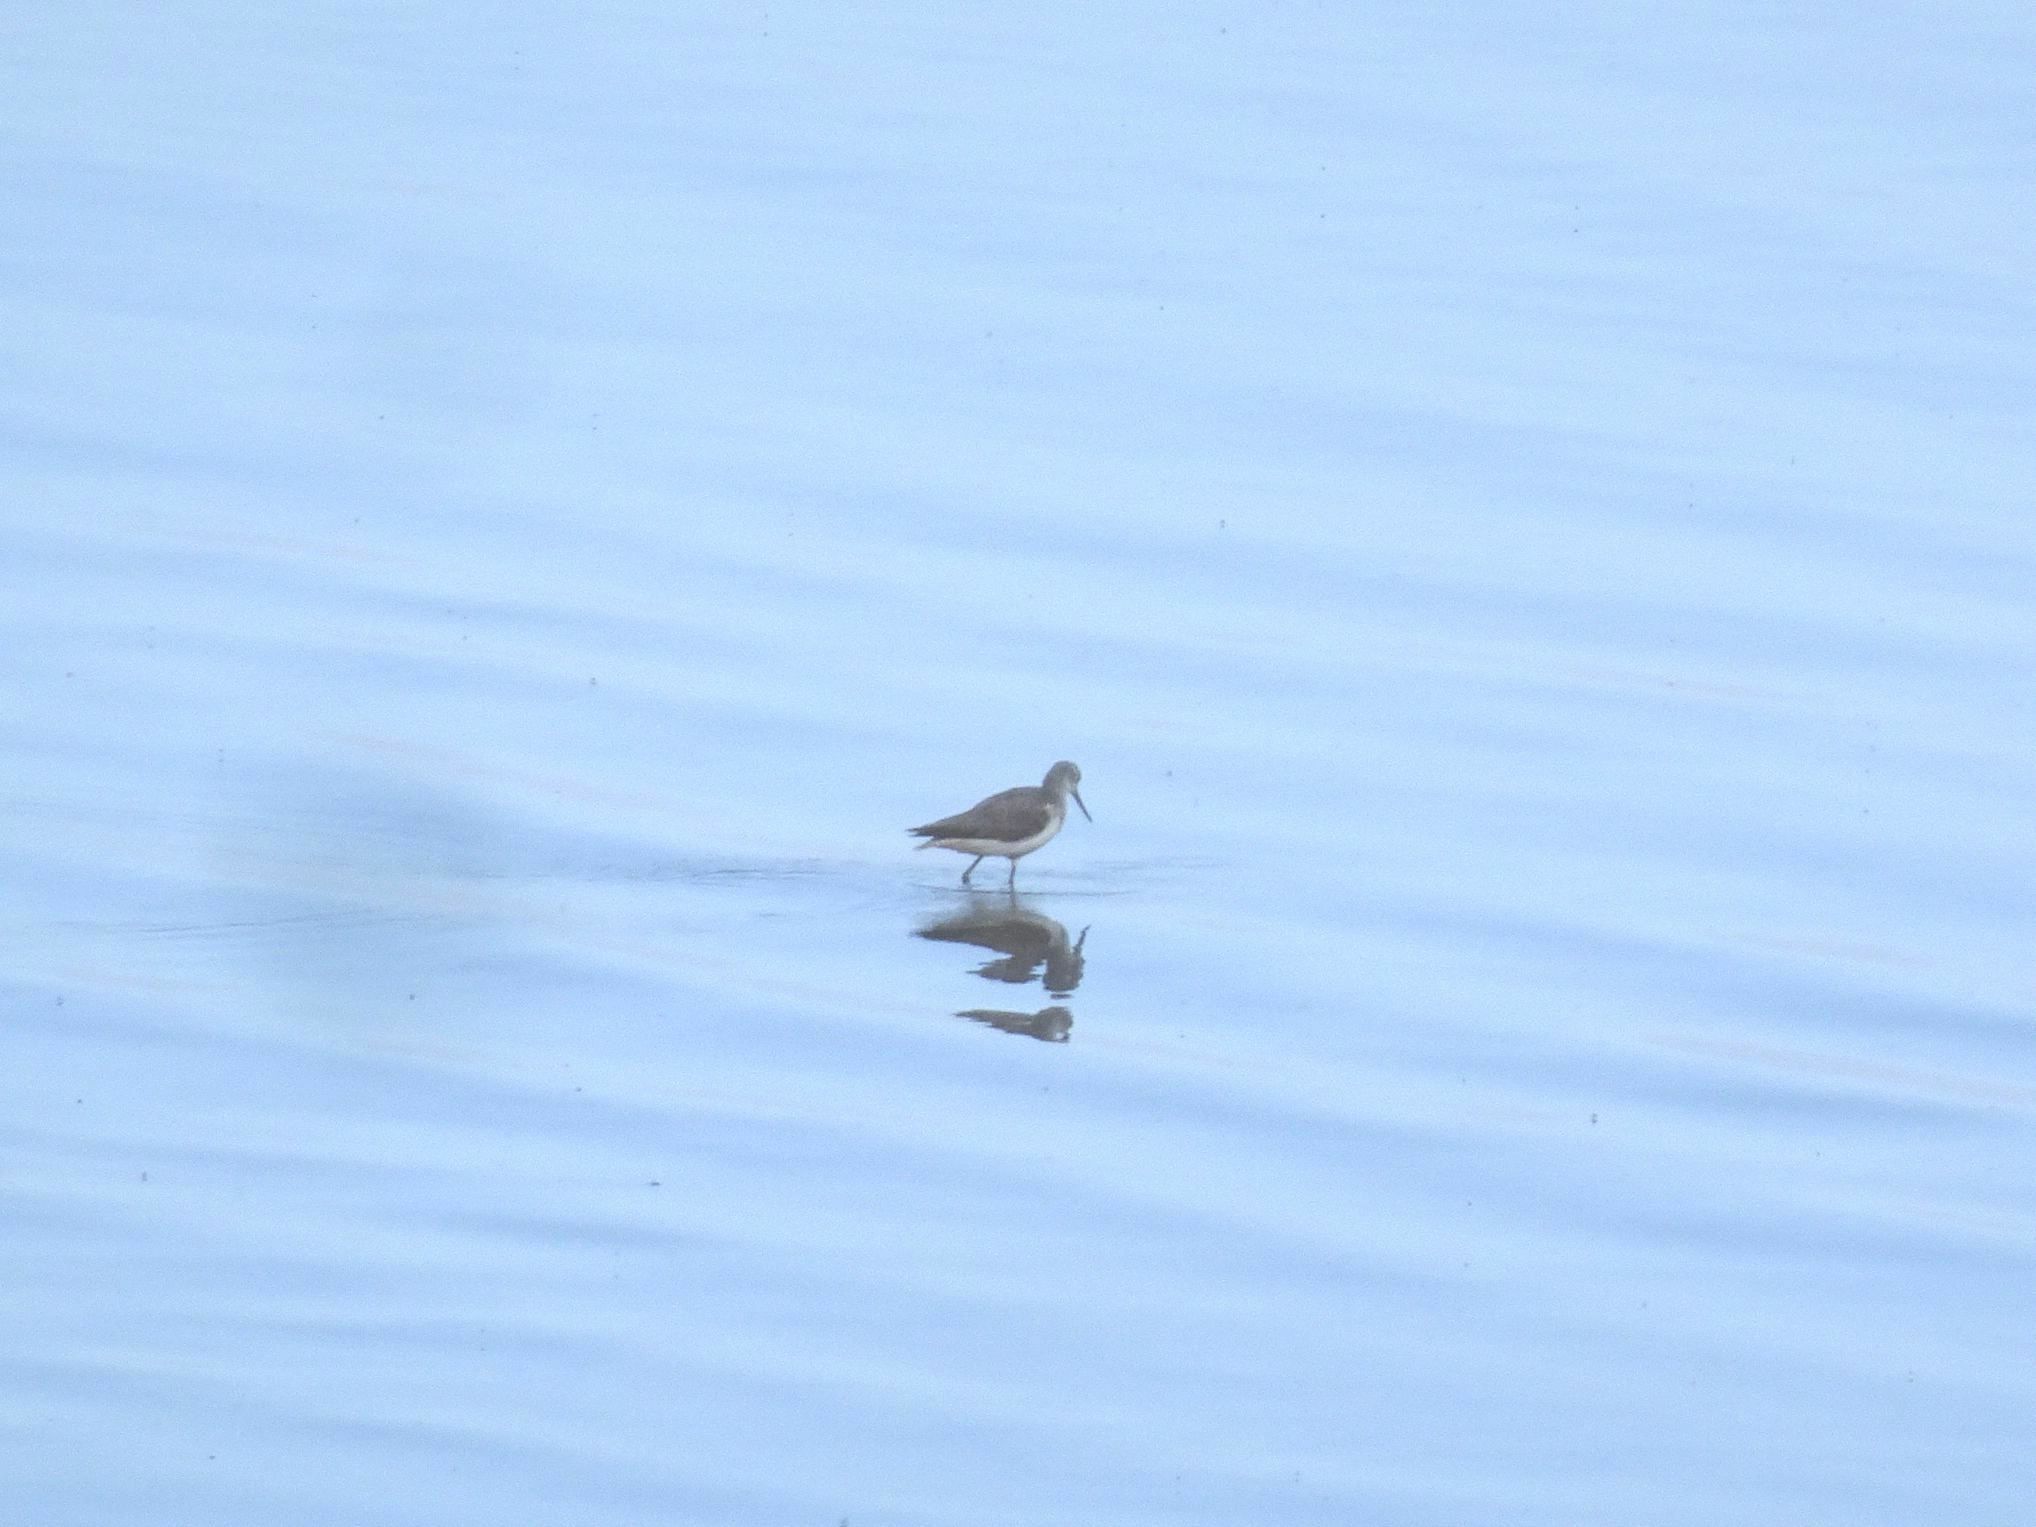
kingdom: Animalia
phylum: Chordata
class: Aves
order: Charadriiformes
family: Scolopacidae
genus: Tringa
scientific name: Tringa nebularia
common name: Common greenshank
